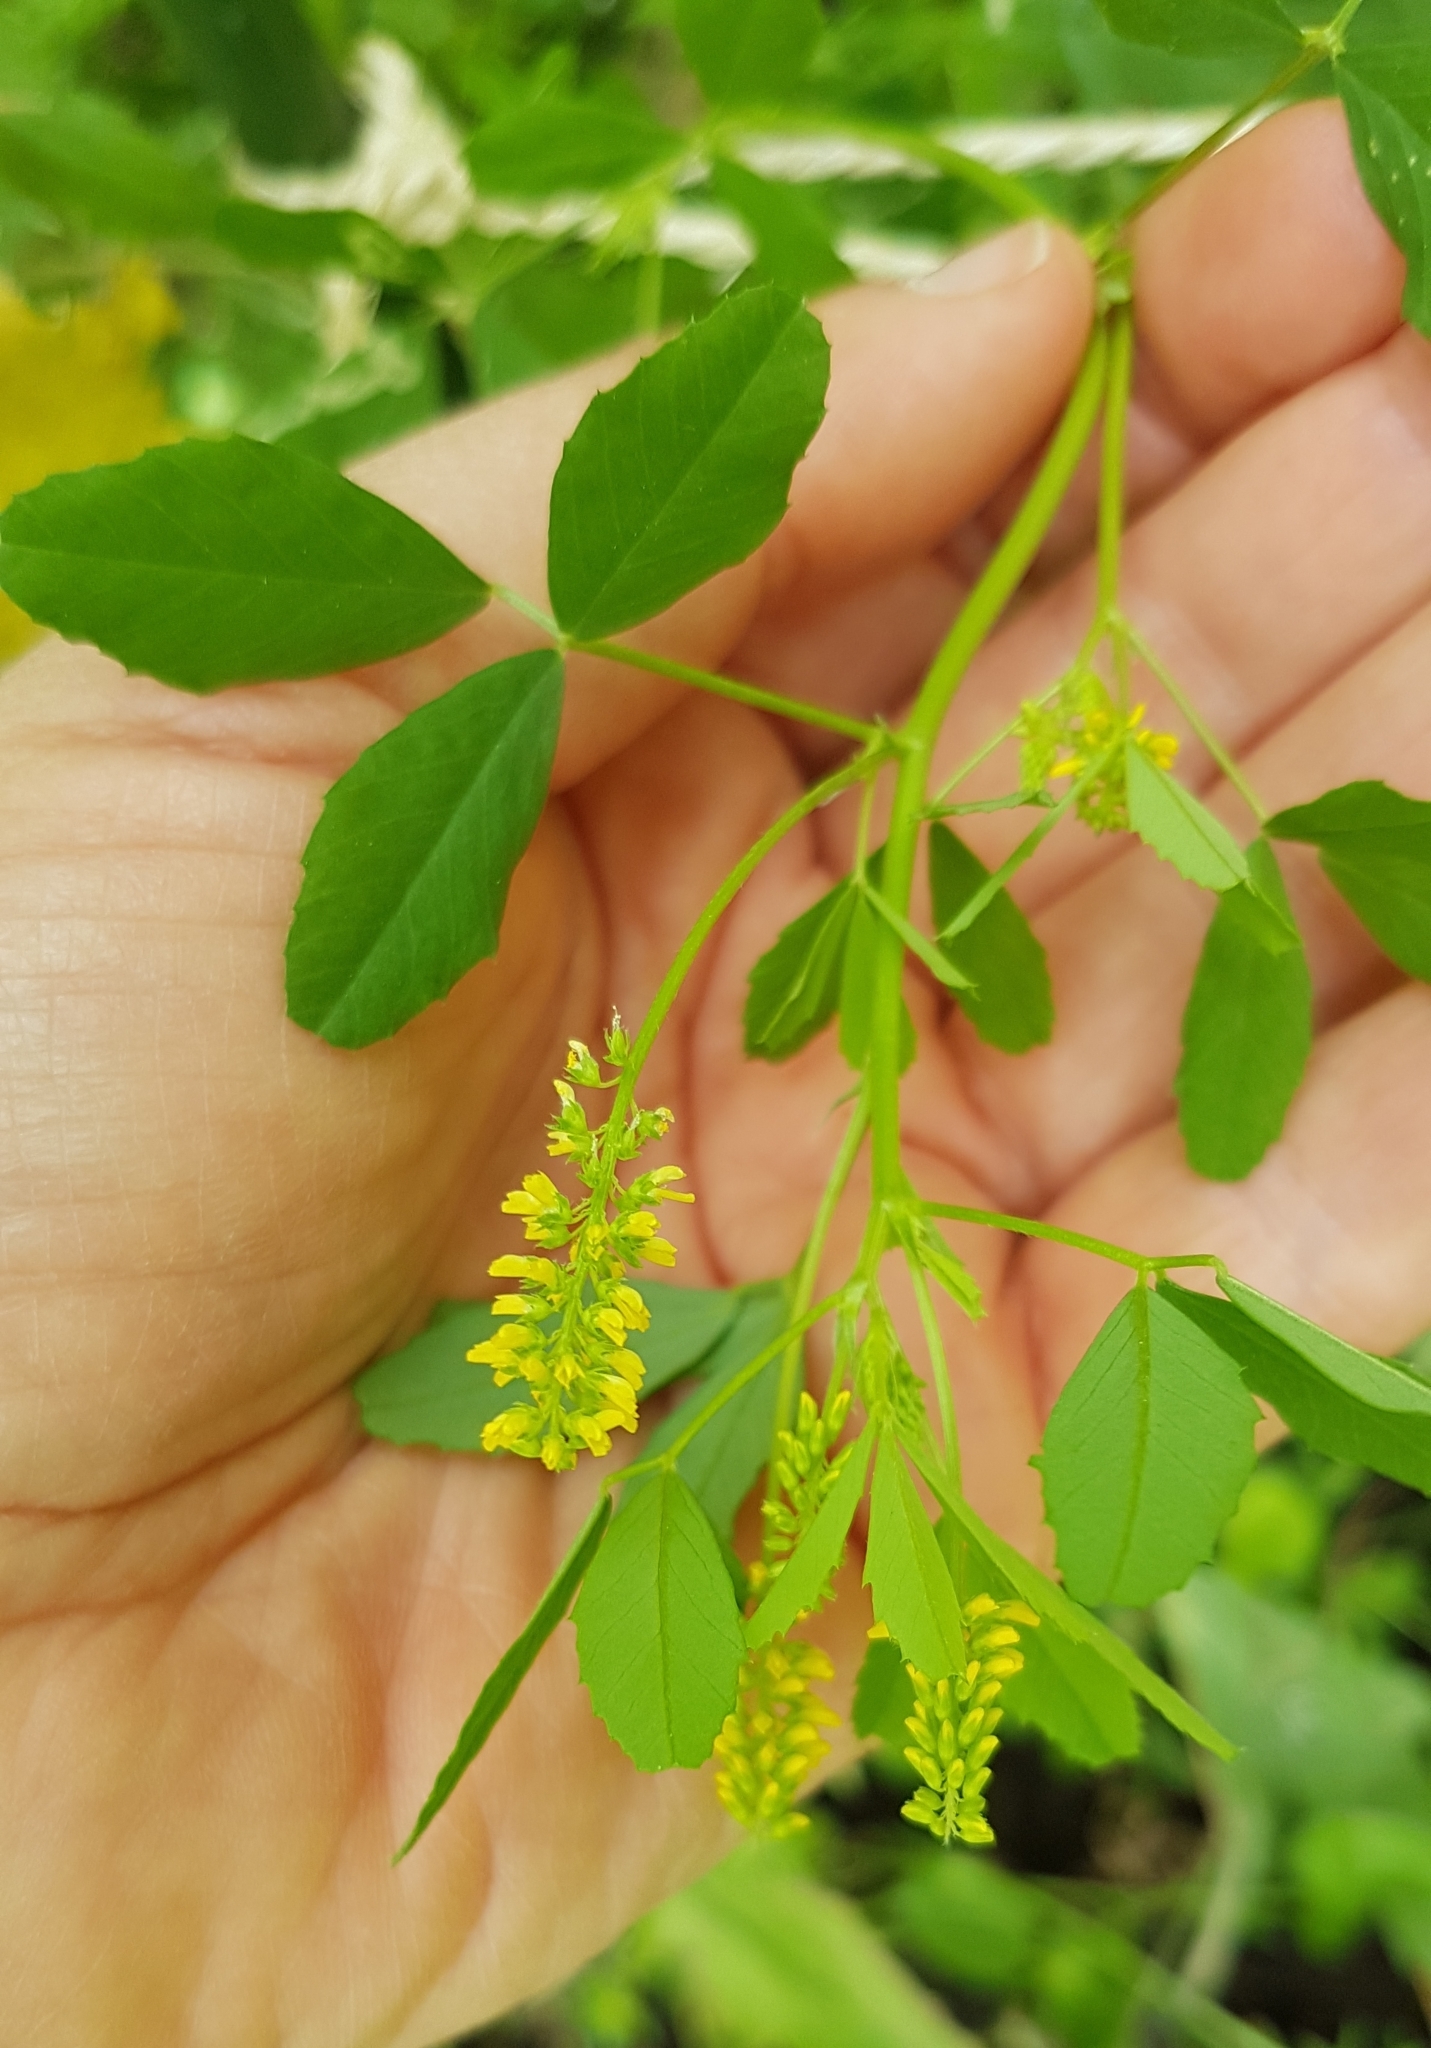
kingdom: Plantae
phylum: Tracheophyta
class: Magnoliopsida
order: Fabales
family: Fabaceae
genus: Melilotus
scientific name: Melilotus indicus
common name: Small melilot
